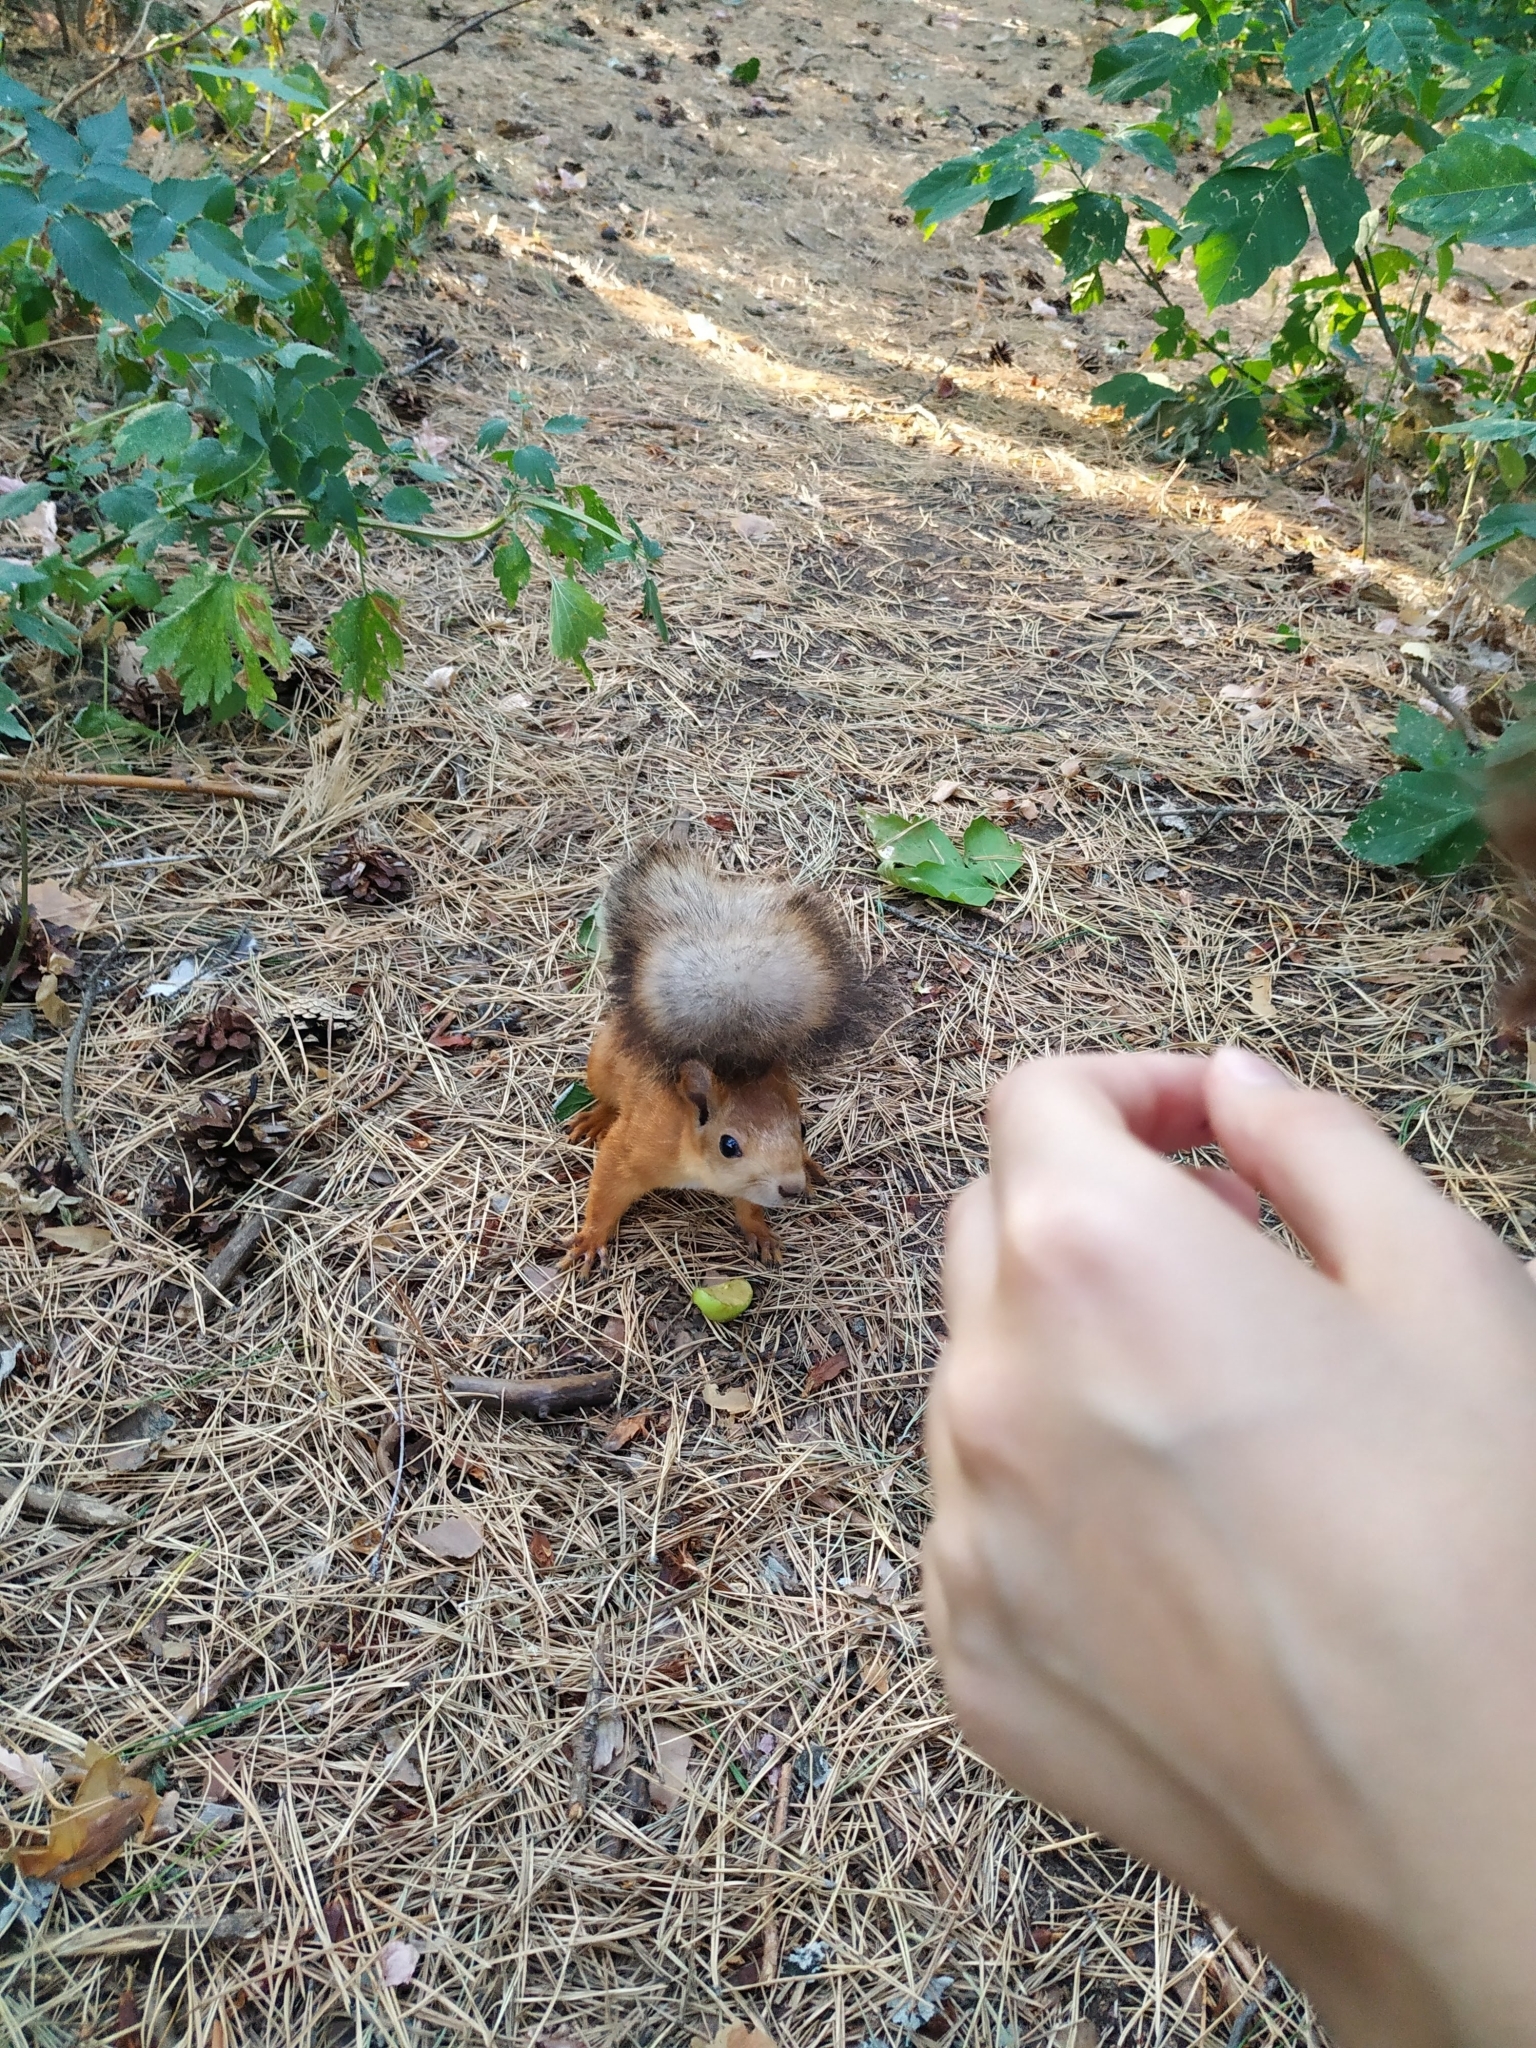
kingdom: Animalia
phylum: Chordata
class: Mammalia
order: Rodentia
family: Sciuridae
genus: Sciurus
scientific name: Sciurus vulgaris
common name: Eurasian red squirrel
